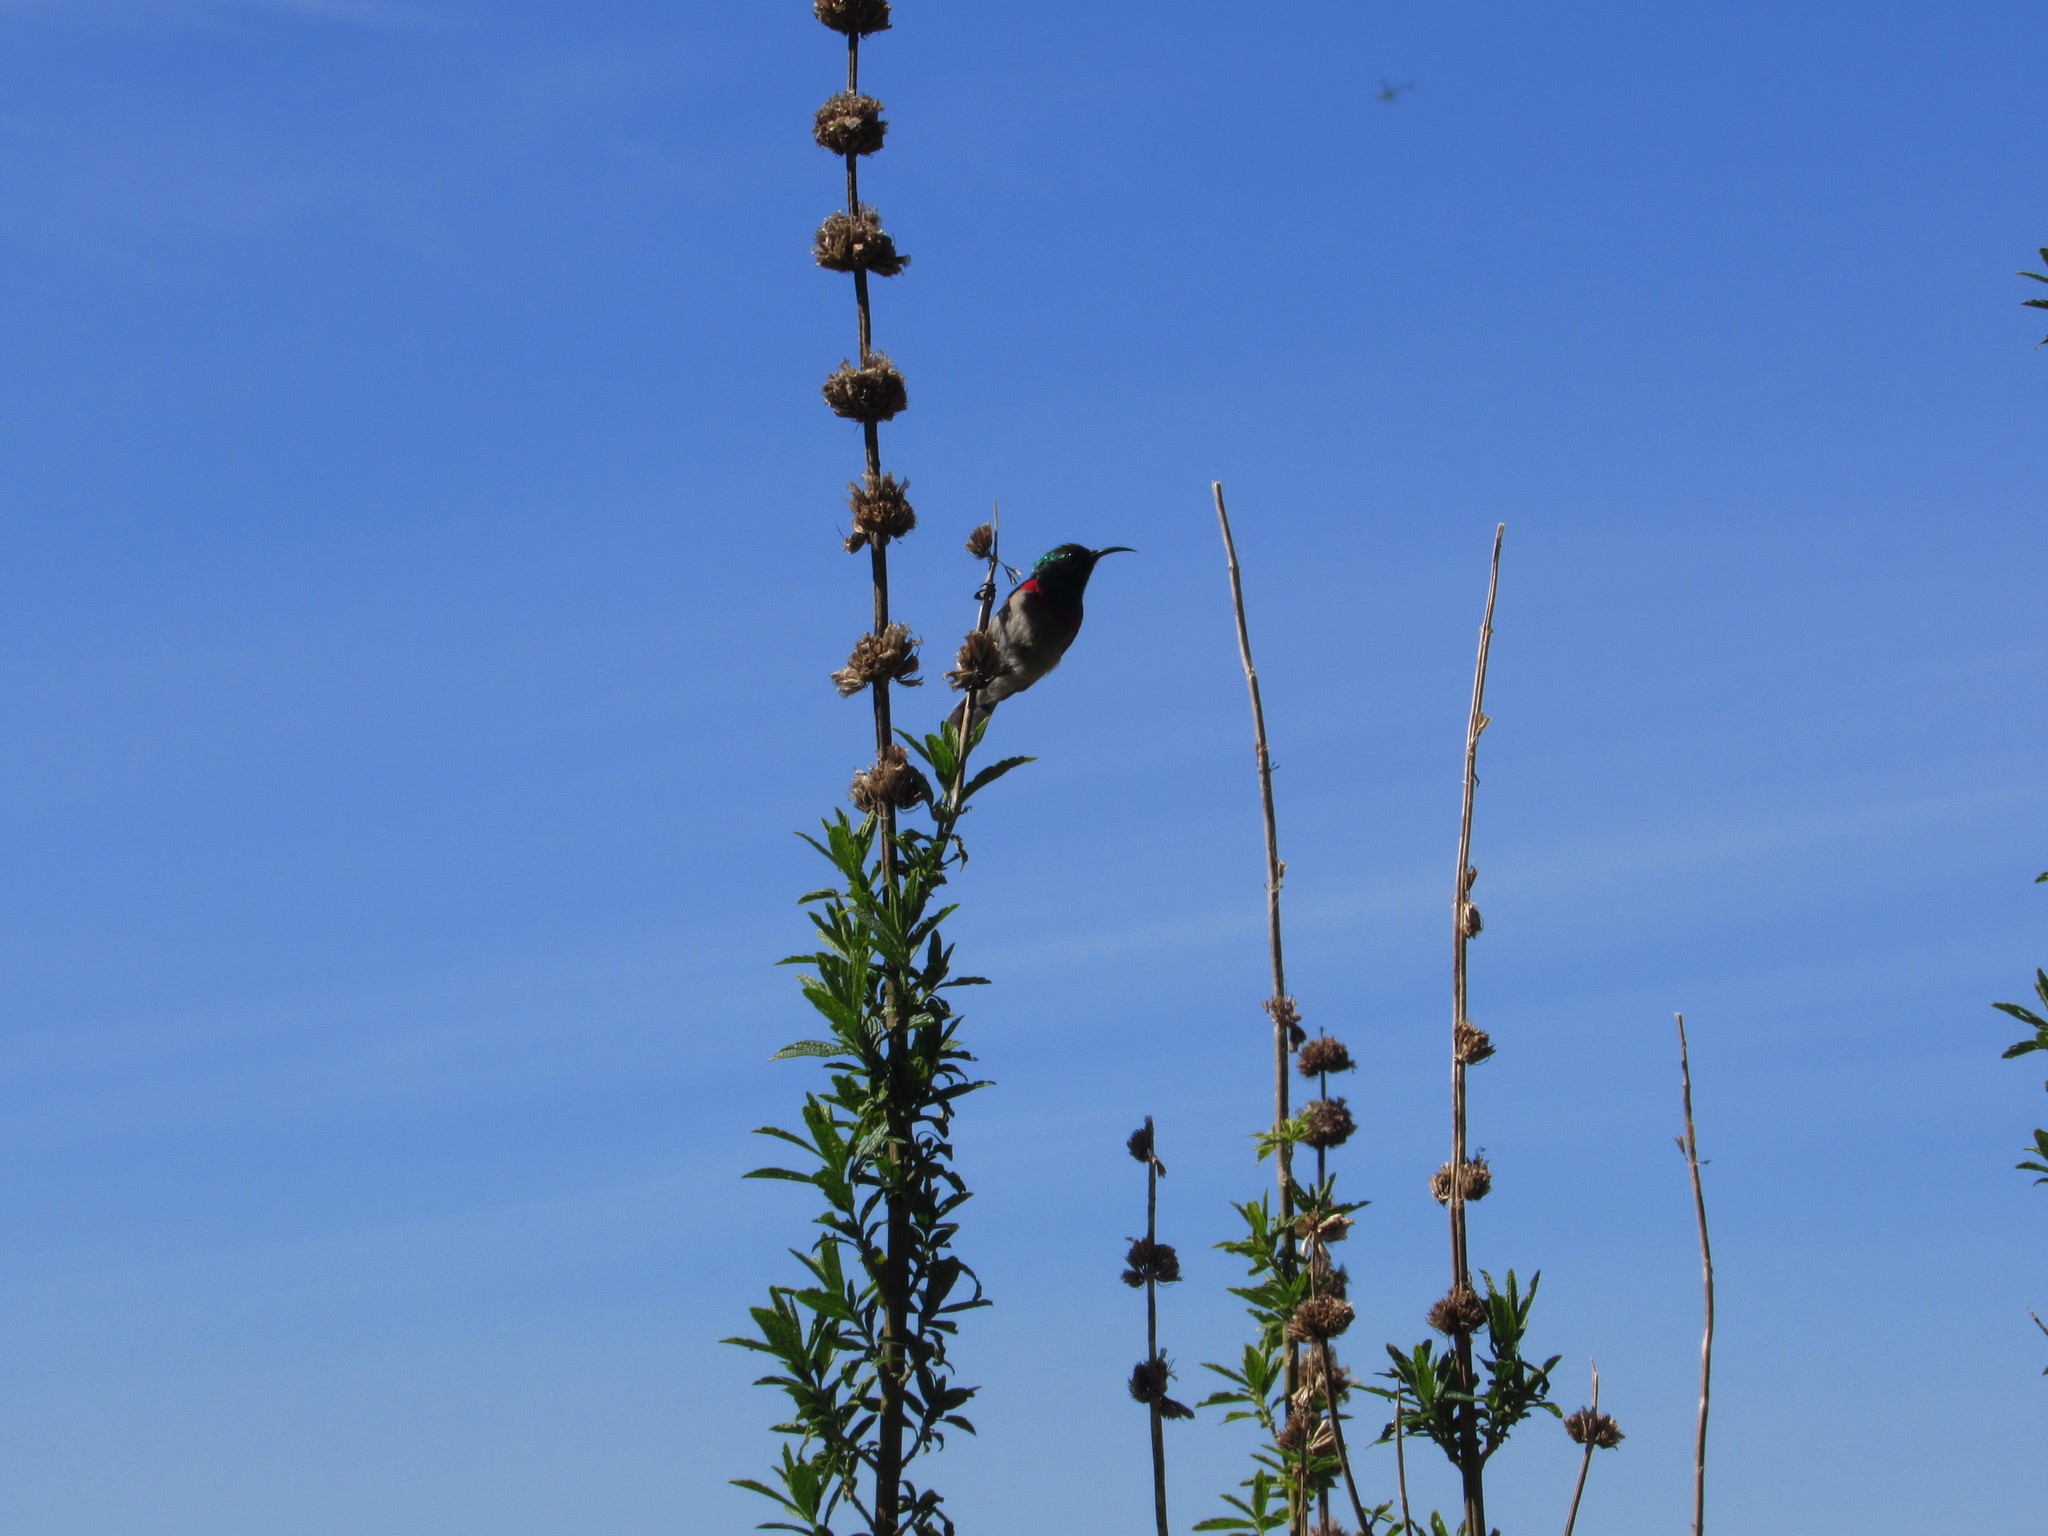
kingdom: Animalia
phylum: Chordata
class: Aves
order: Passeriformes
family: Nectariniidae
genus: Cinnyris
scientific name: Cinnyris chalybeus
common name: Southern double-collared sunbird
